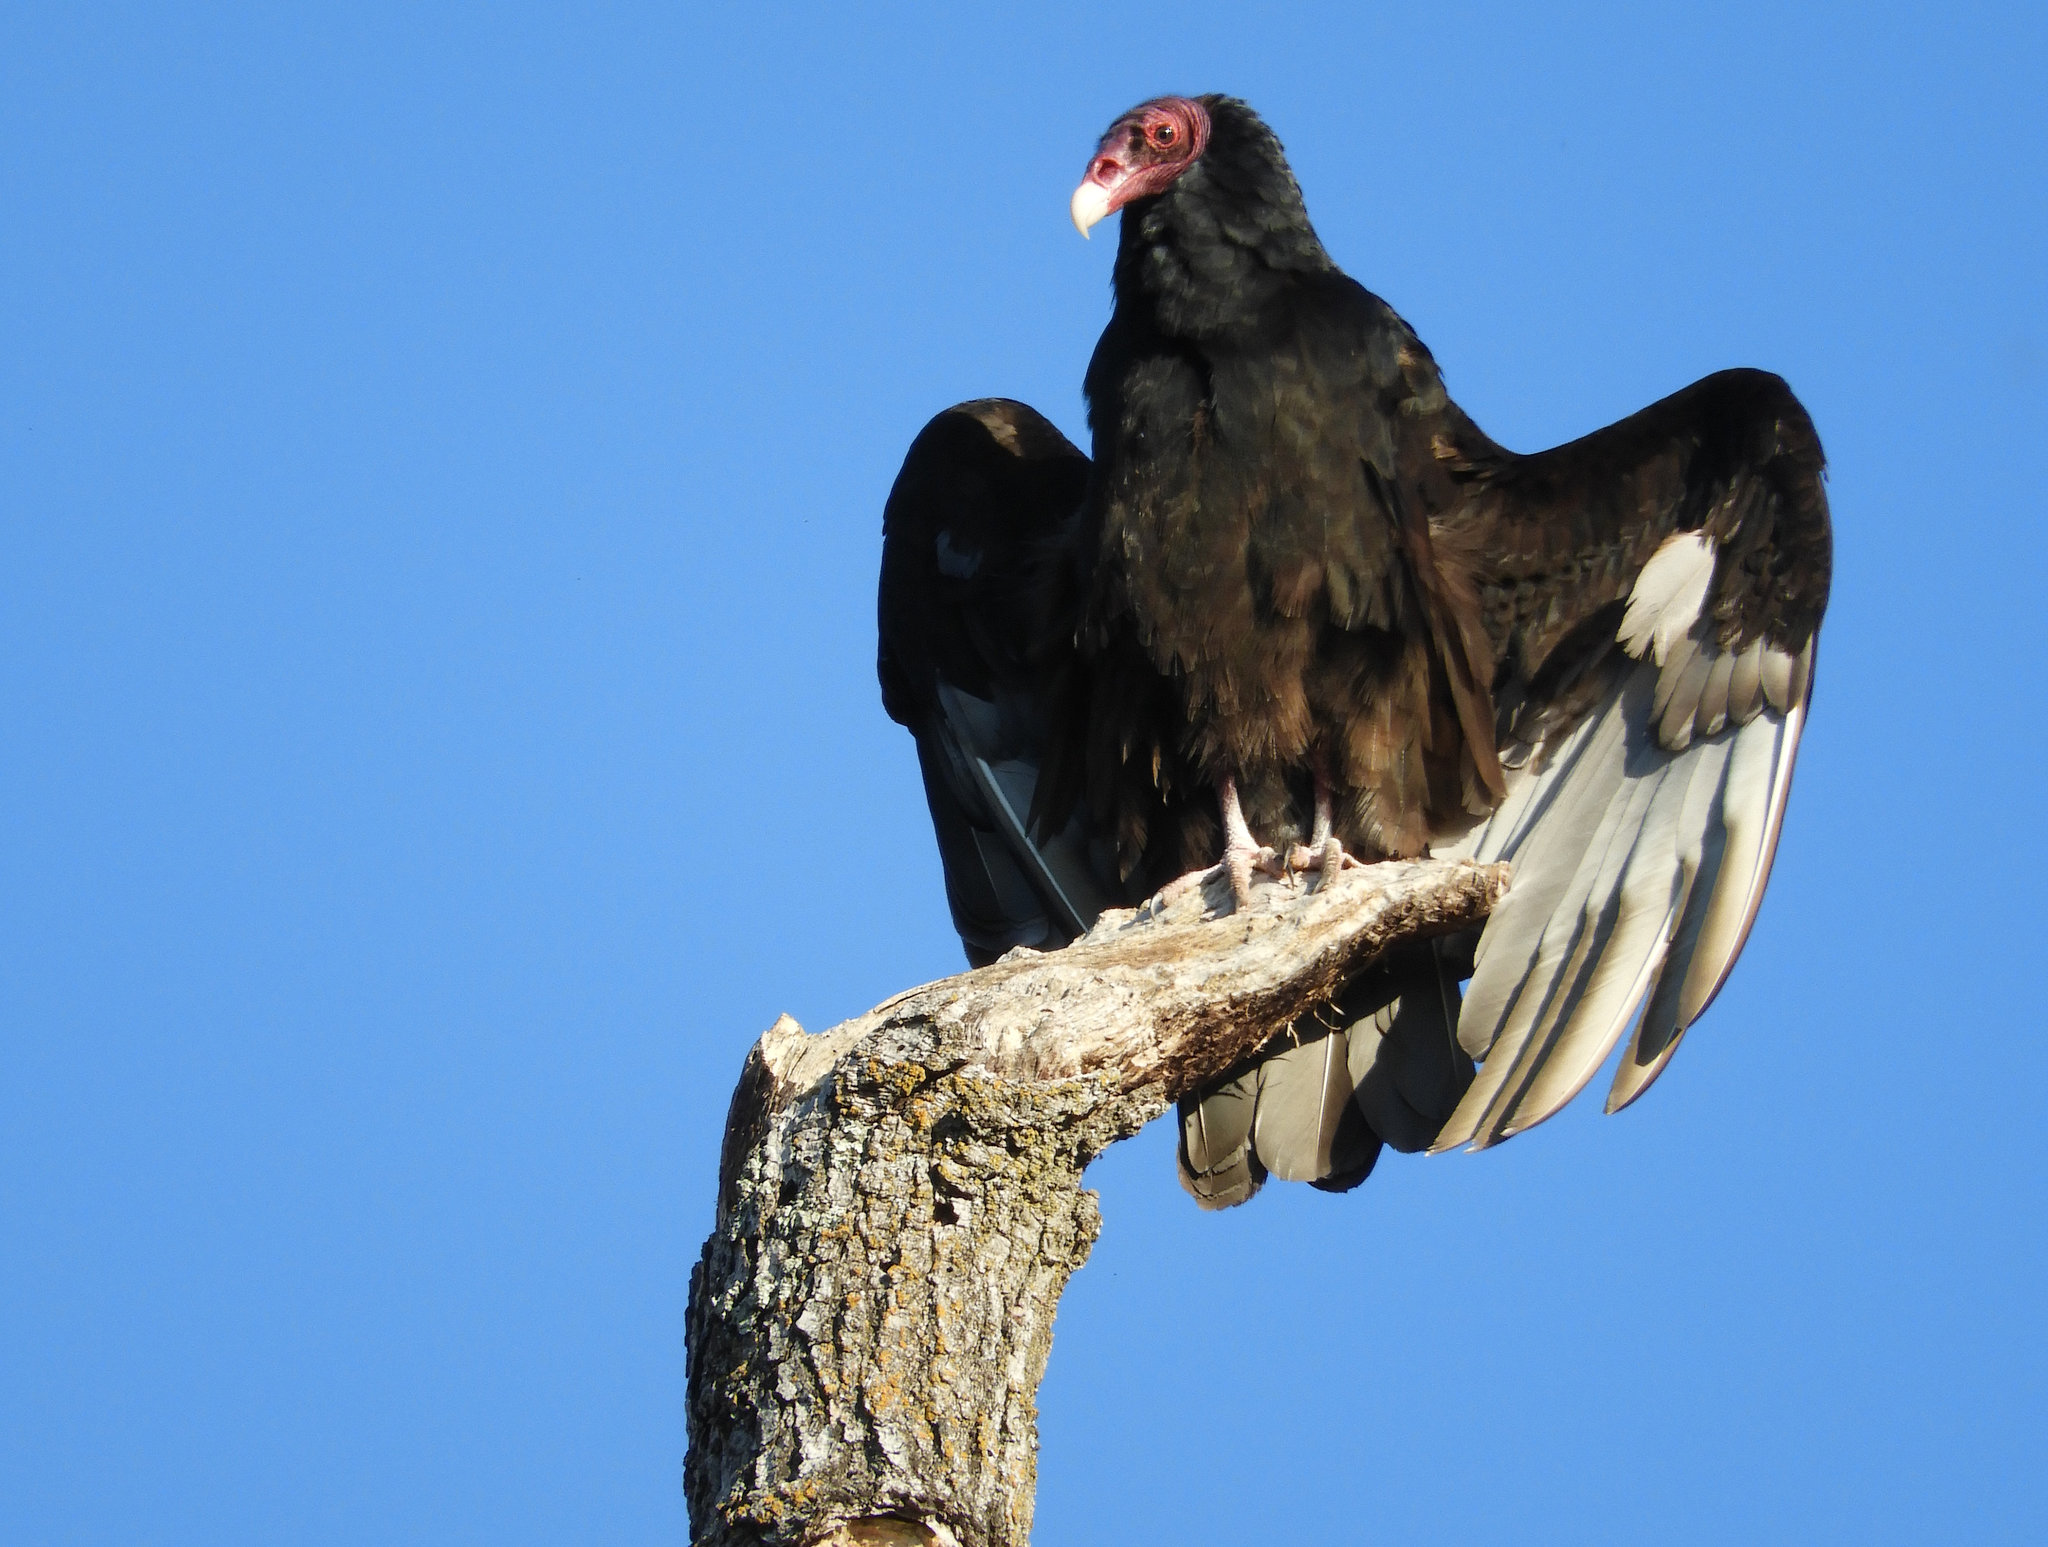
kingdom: Animalia
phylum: Chordata
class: Aves
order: Accipitriformes
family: Cathartidae
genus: Cathartes
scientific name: Cathartes aura
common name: Turkey vulture
